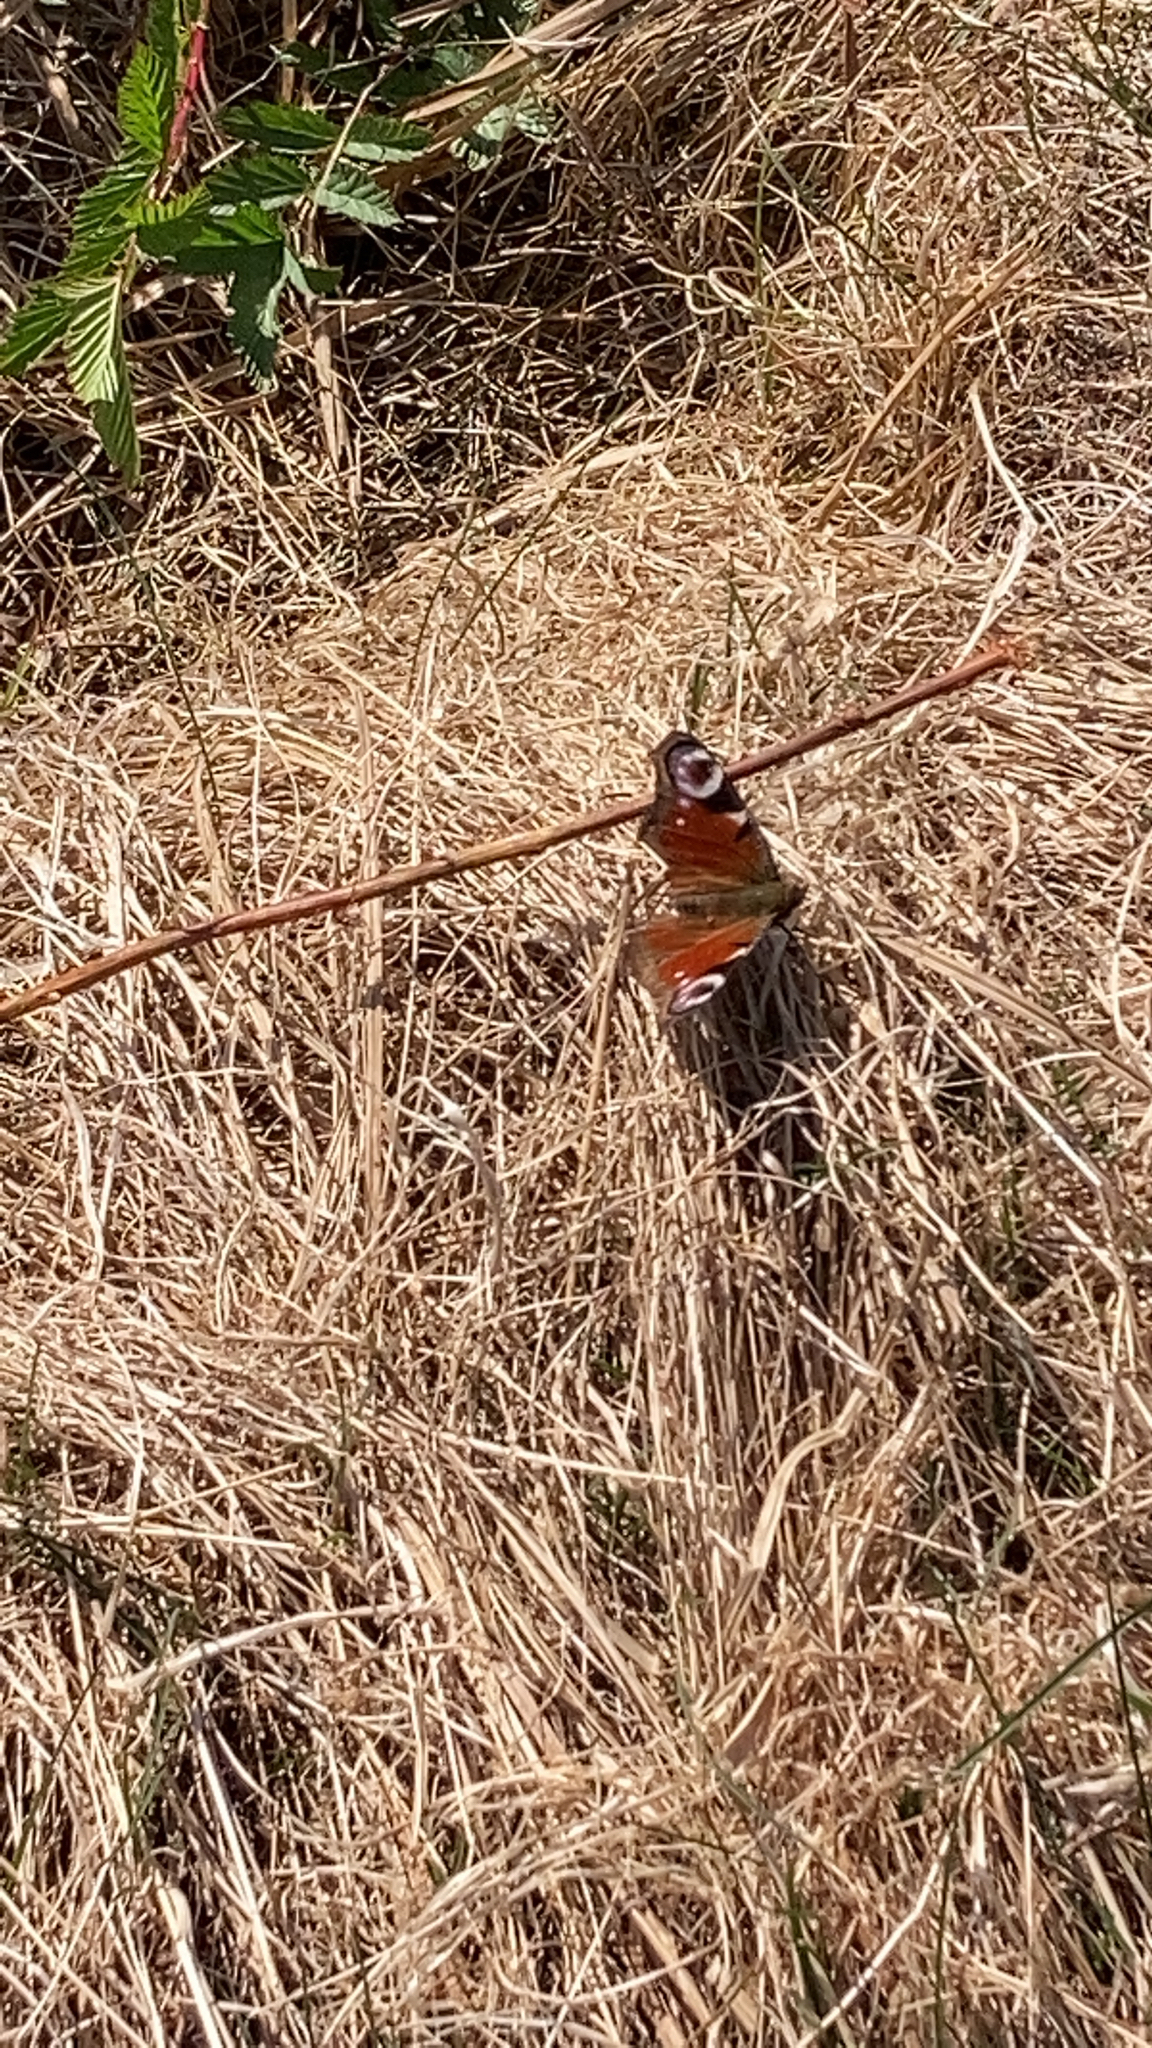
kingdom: Animalia
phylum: Arthropoda
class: Insecta
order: Lepidoptera
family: Nymphalidae
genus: Aglais
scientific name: Aglais io
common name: Peacock
